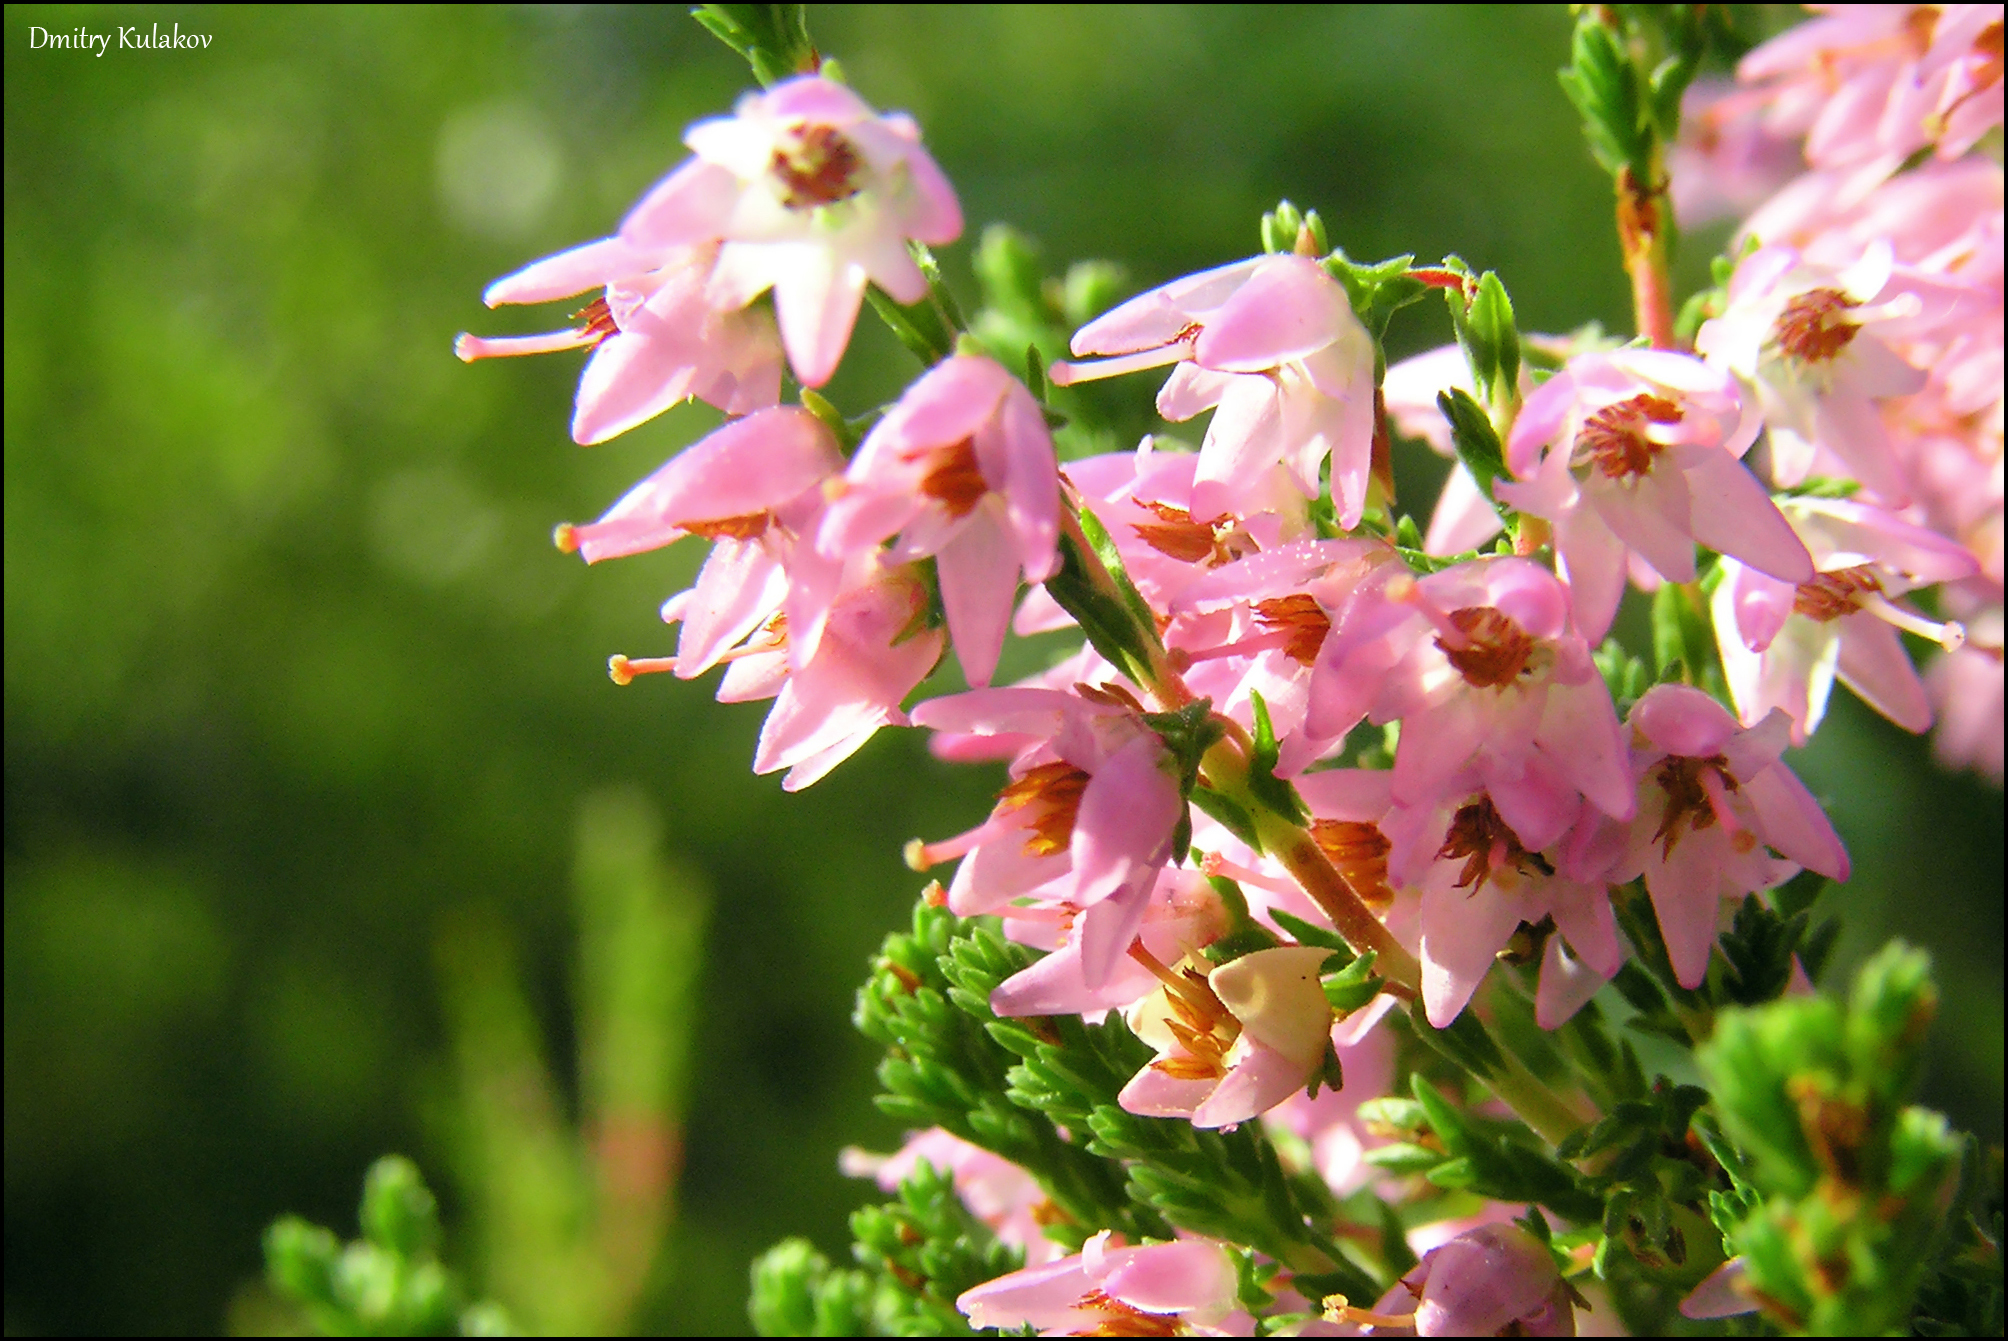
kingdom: Plantae
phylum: Tracheophyta
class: Magnoliopsida
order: Ericales
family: Ericaceae
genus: Calluna
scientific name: Calluna vulgaris
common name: Heather
